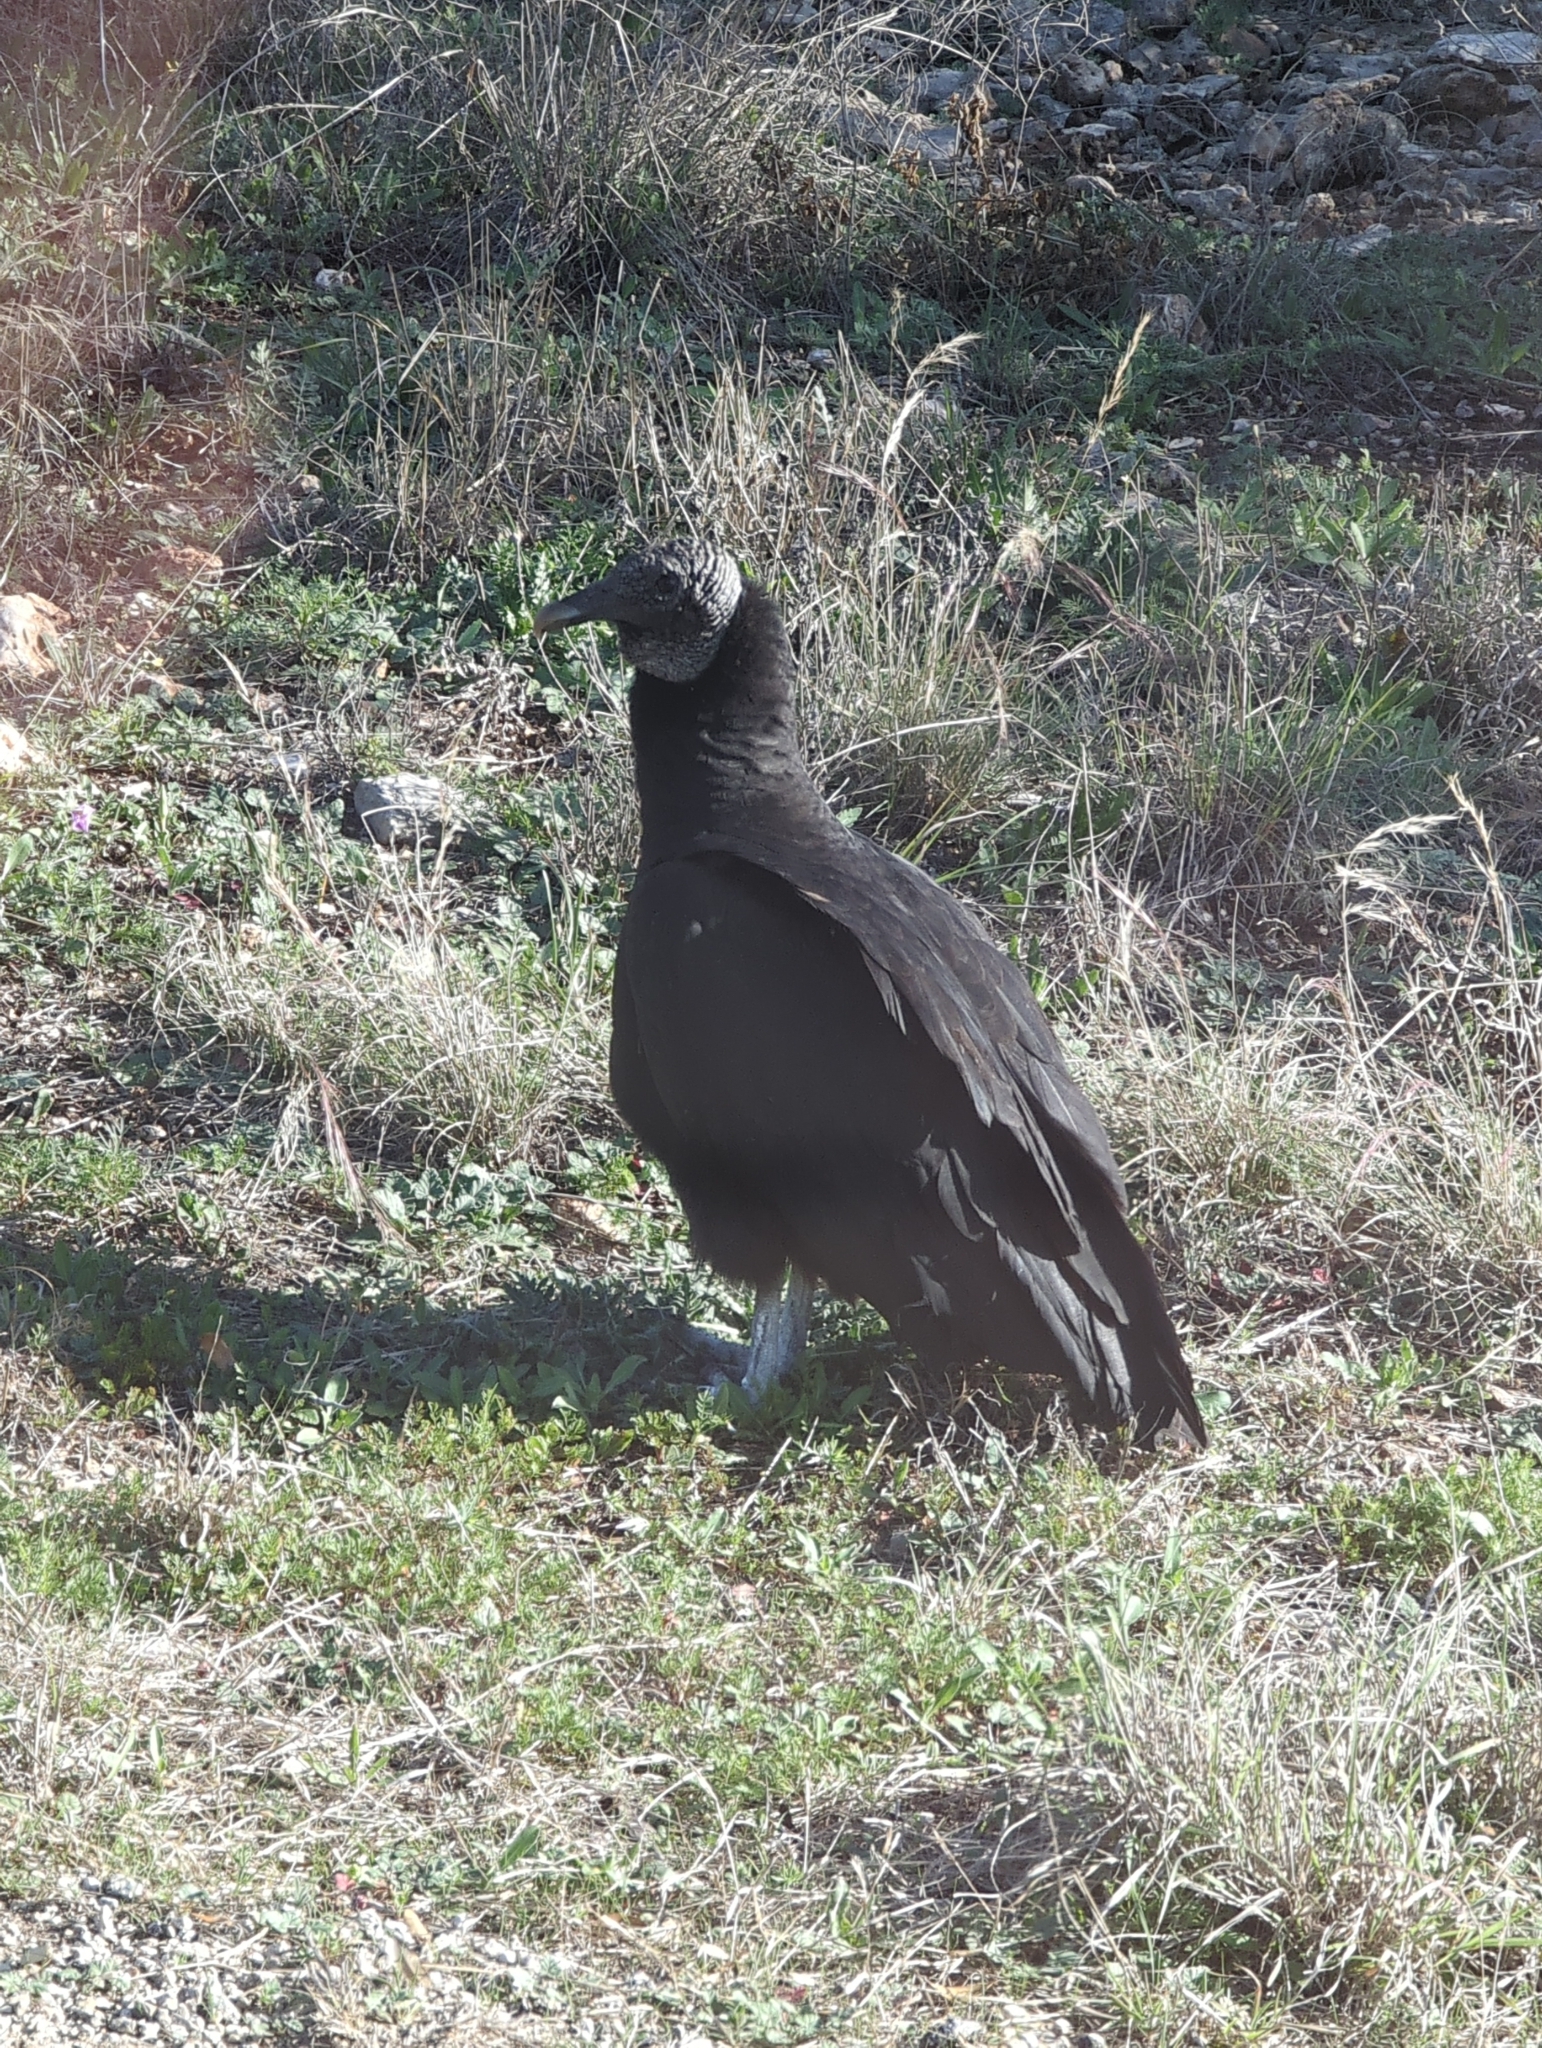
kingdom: Animalia
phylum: Chordata
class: Aves
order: Accipitriformes
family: Cathartidae
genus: Coragyps
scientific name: Coragyps atratus
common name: Black vulture
